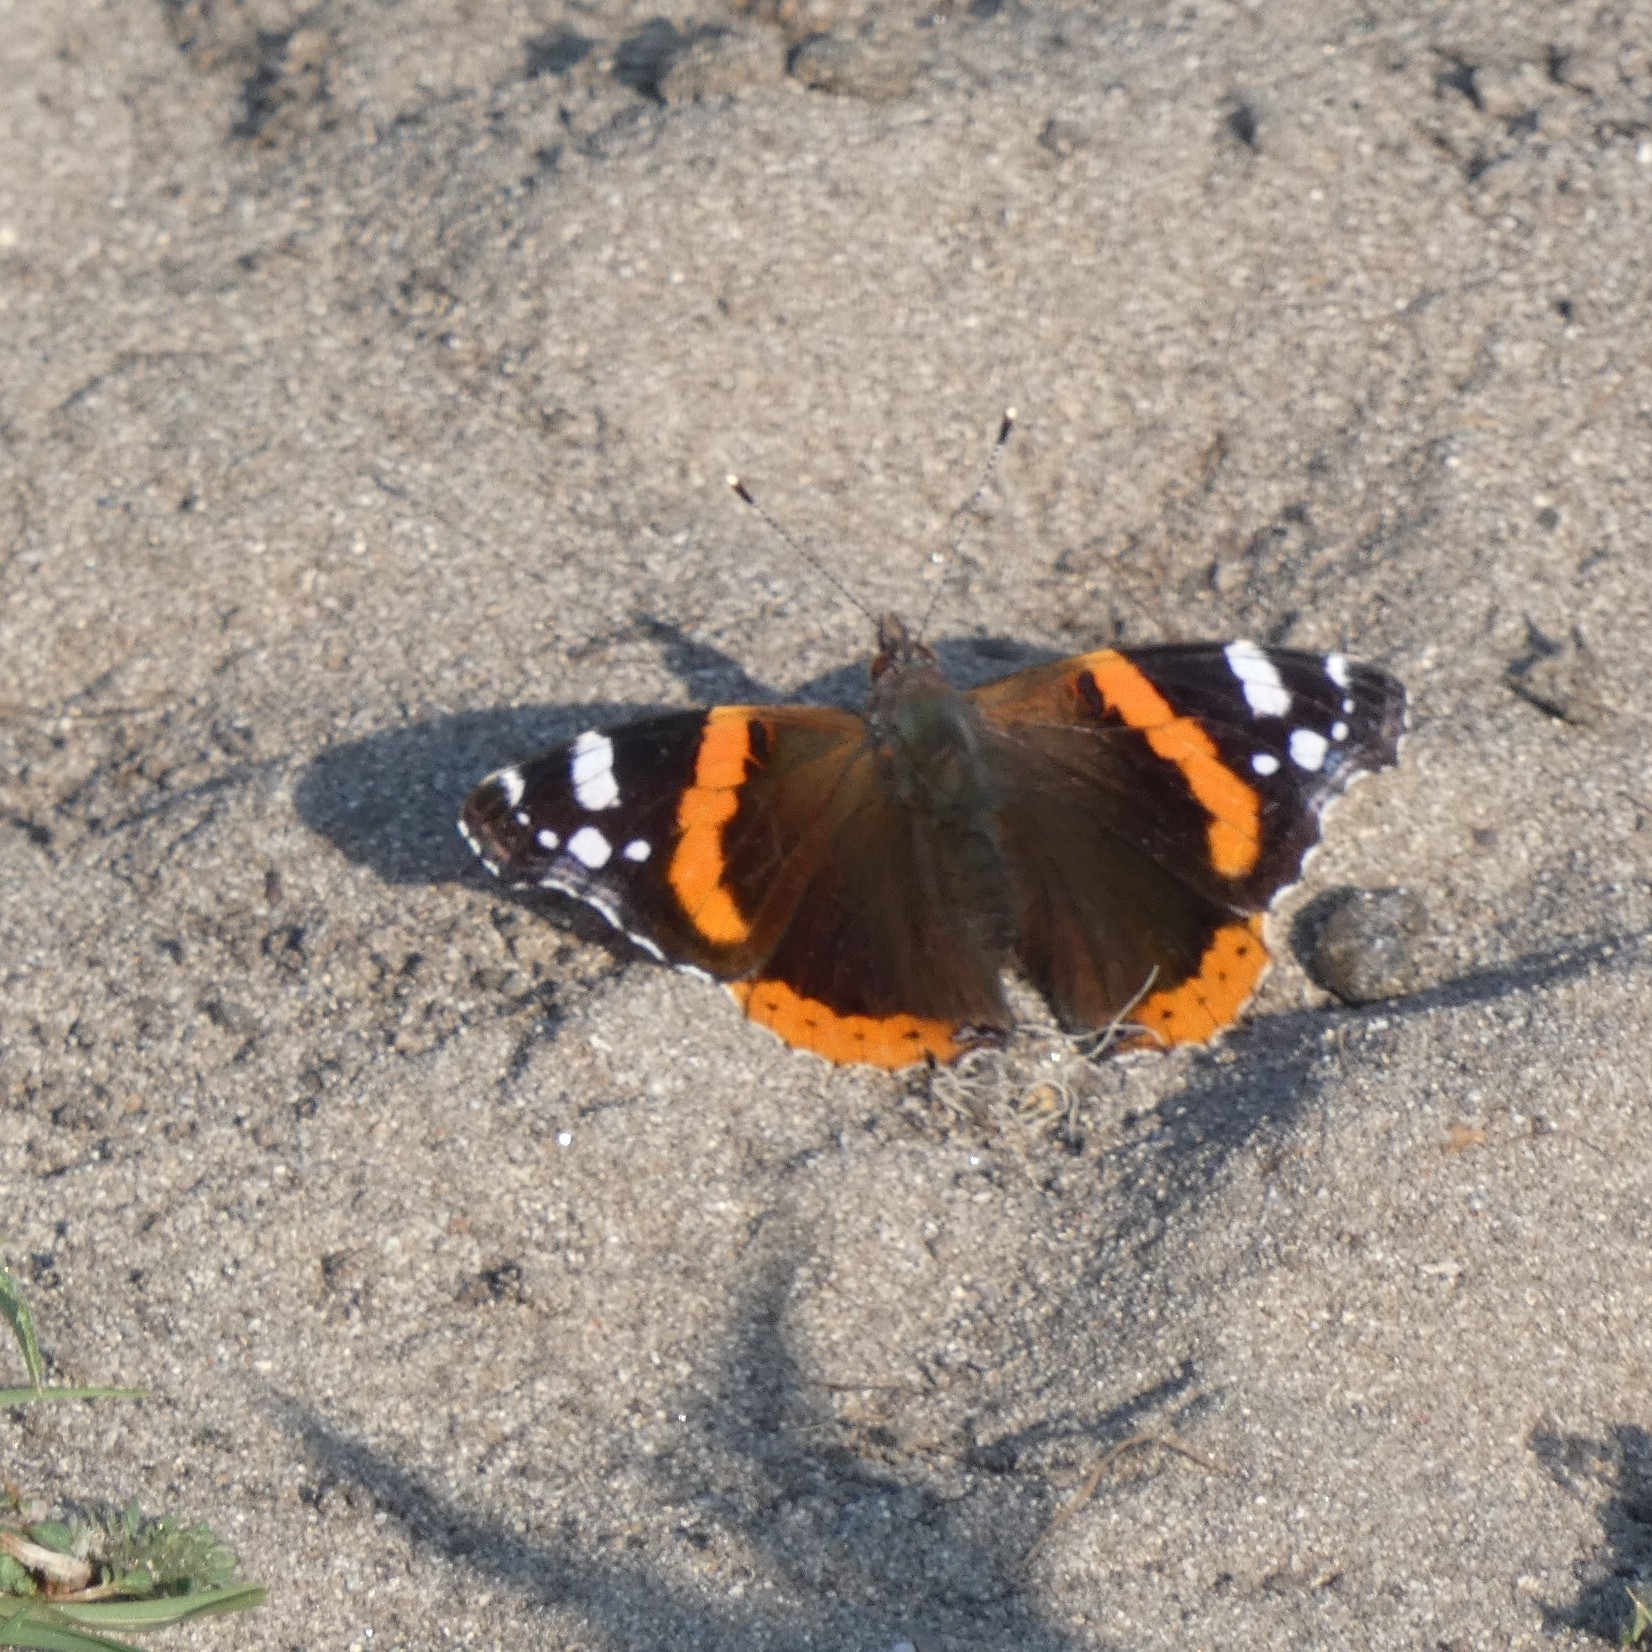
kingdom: Animalia
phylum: Arthropoda
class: Insecta
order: Lepidoptera
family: Nymphalidae
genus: Vanessa
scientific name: Vanessa atalanta
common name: Red admiral
